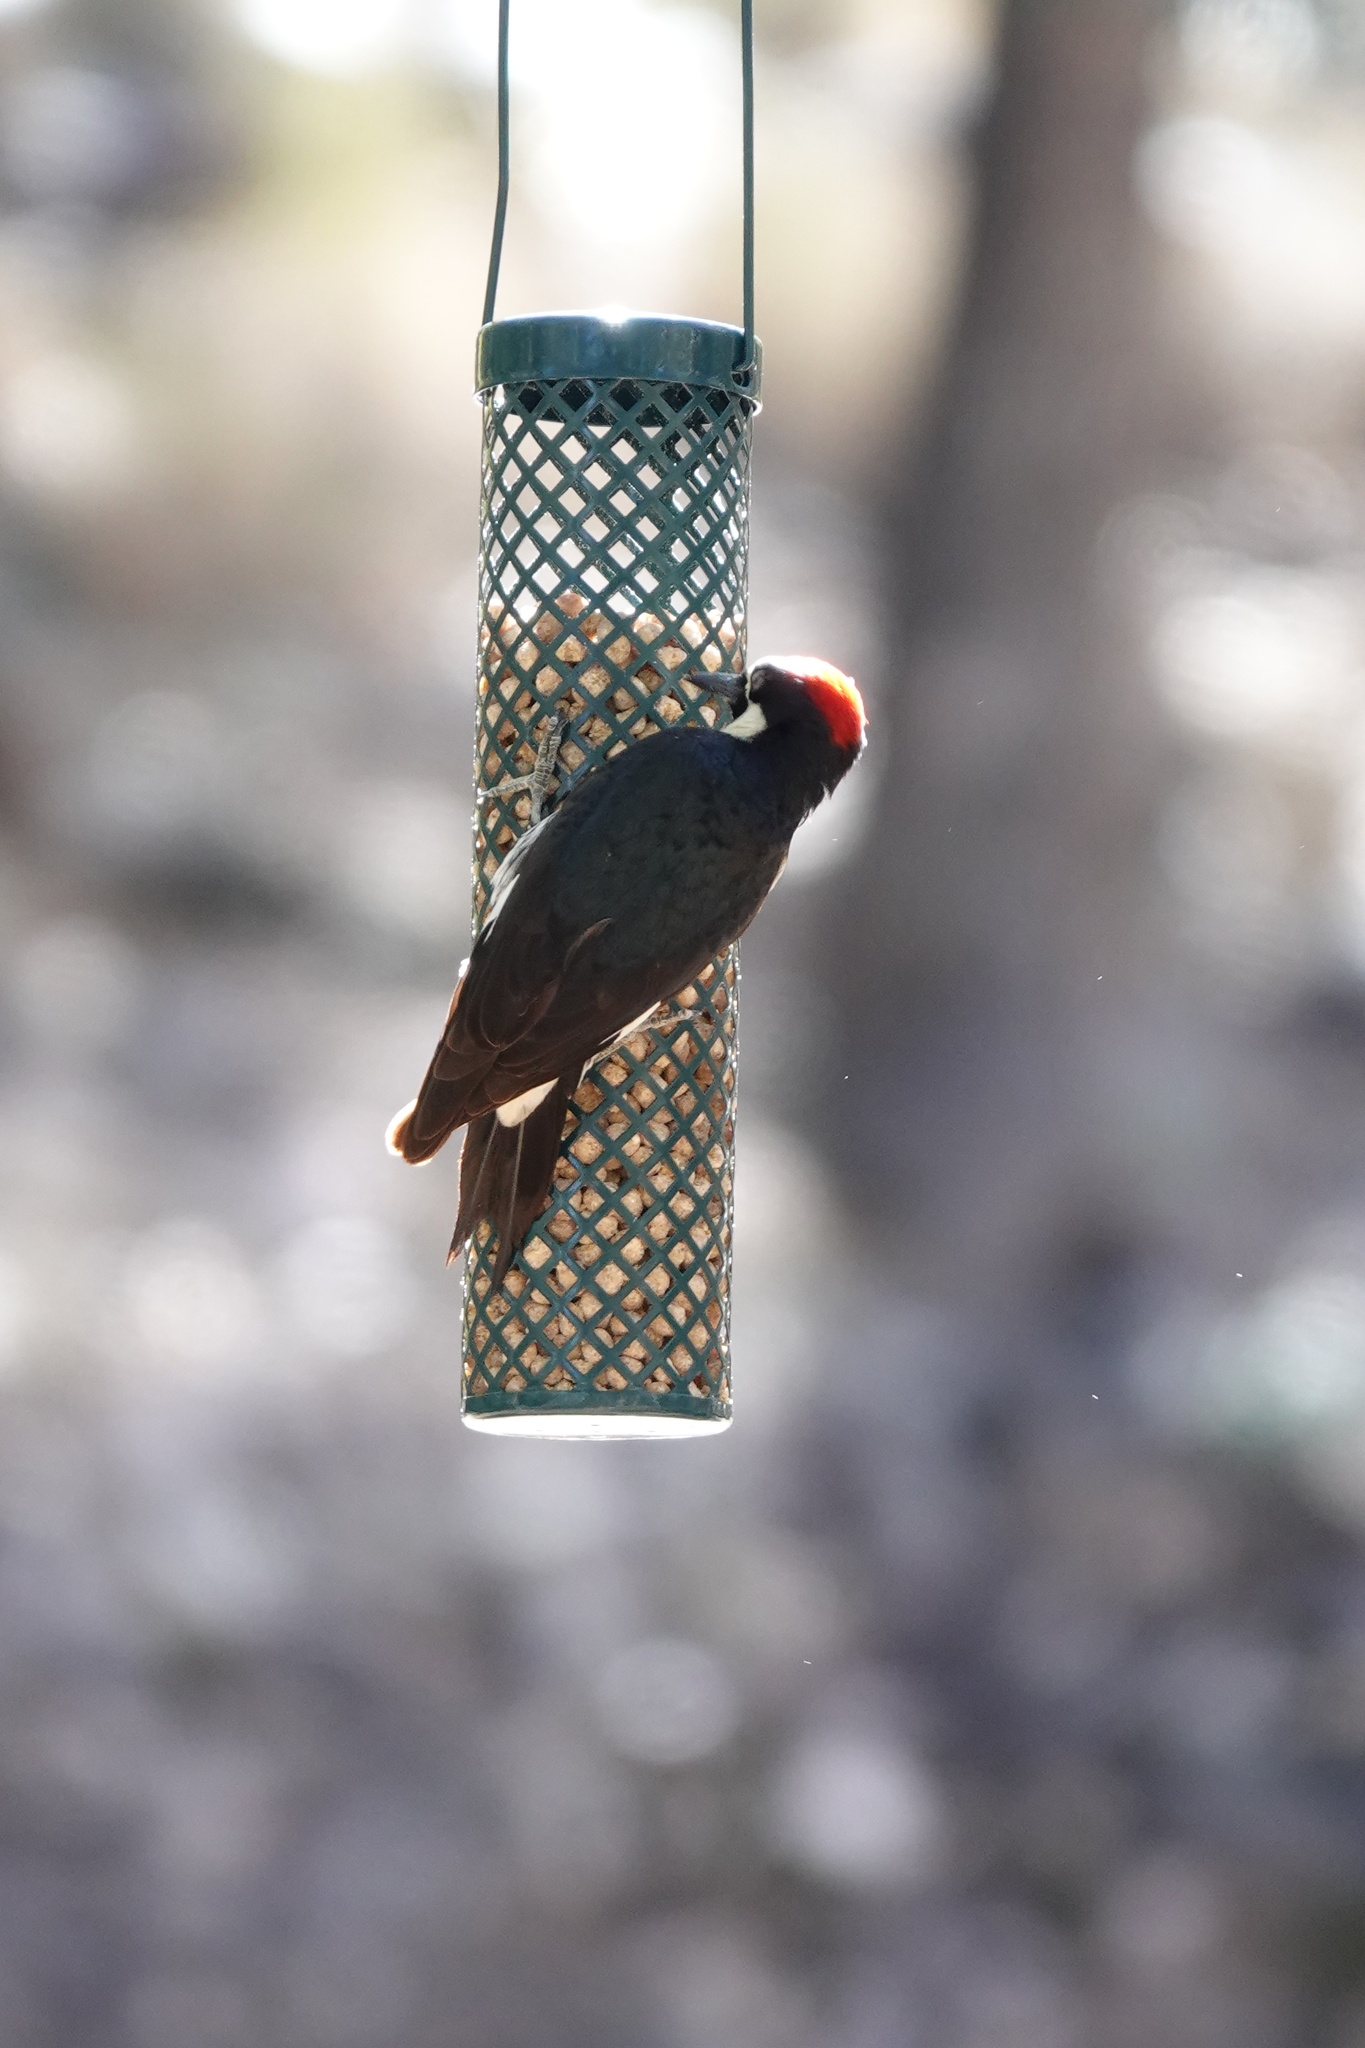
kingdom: Animalia
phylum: Chordata
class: Aves
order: Piciformes
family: Picidae
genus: Melanerpes
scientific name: Melanerpes formicivorus
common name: Acorn woodpecker
